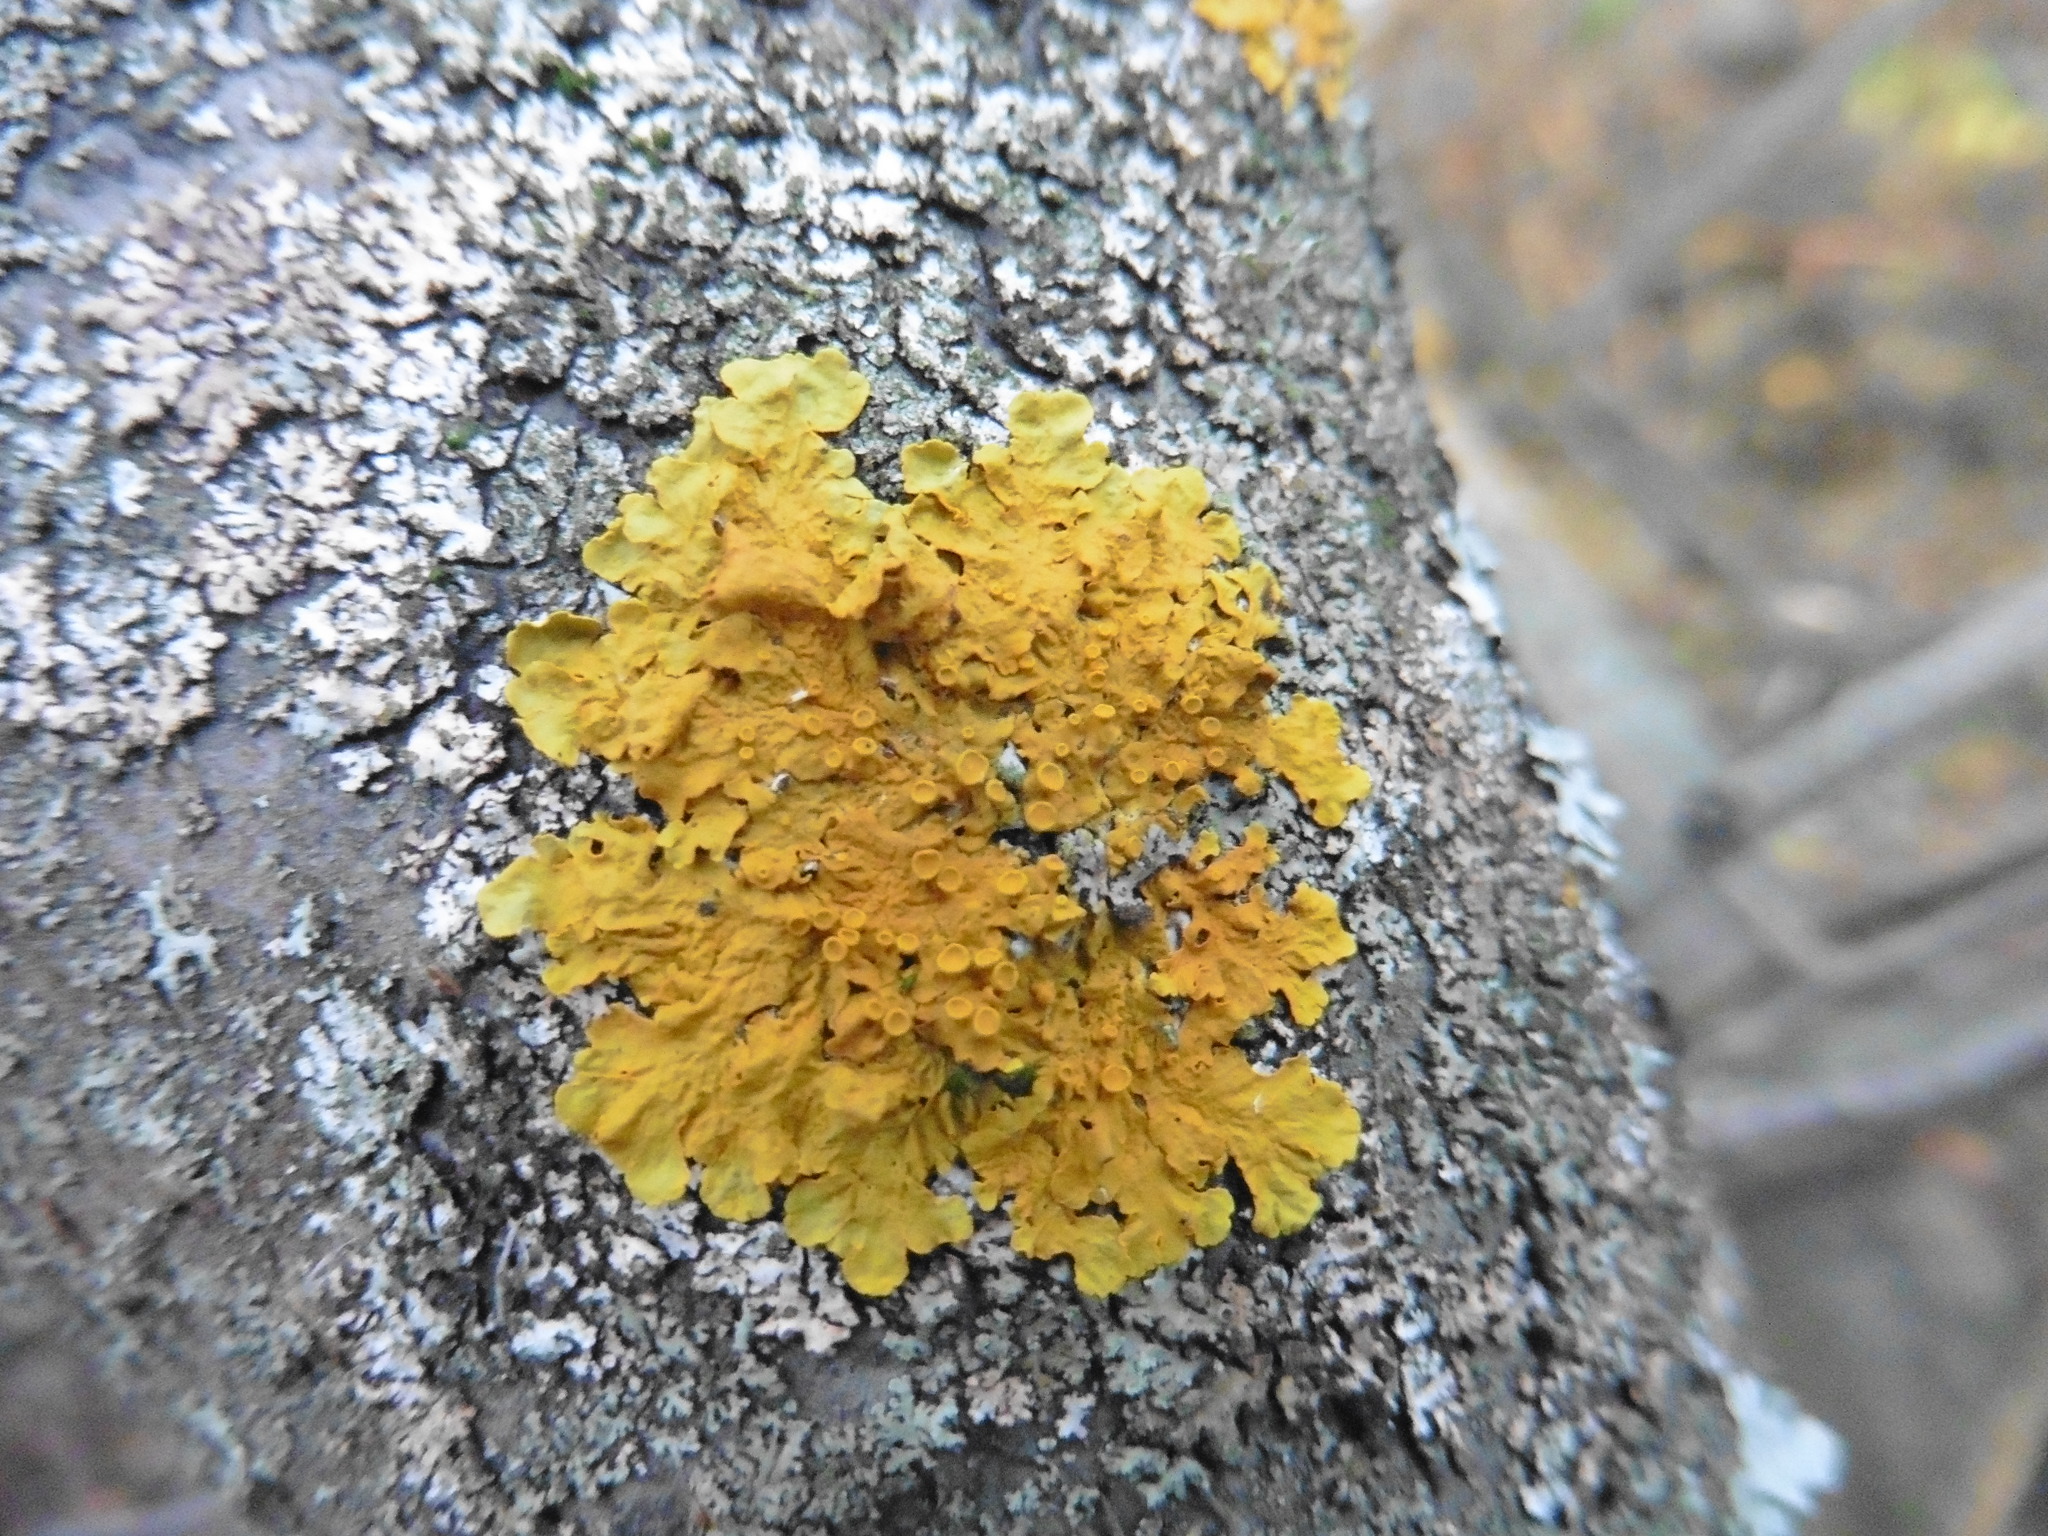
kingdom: Fungi
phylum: Ascomycota
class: Lecanoromycetes
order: Teloschistales
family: Teloschistaceae
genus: Xanthoria
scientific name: Xanthoria parietina
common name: Common orange lichen
